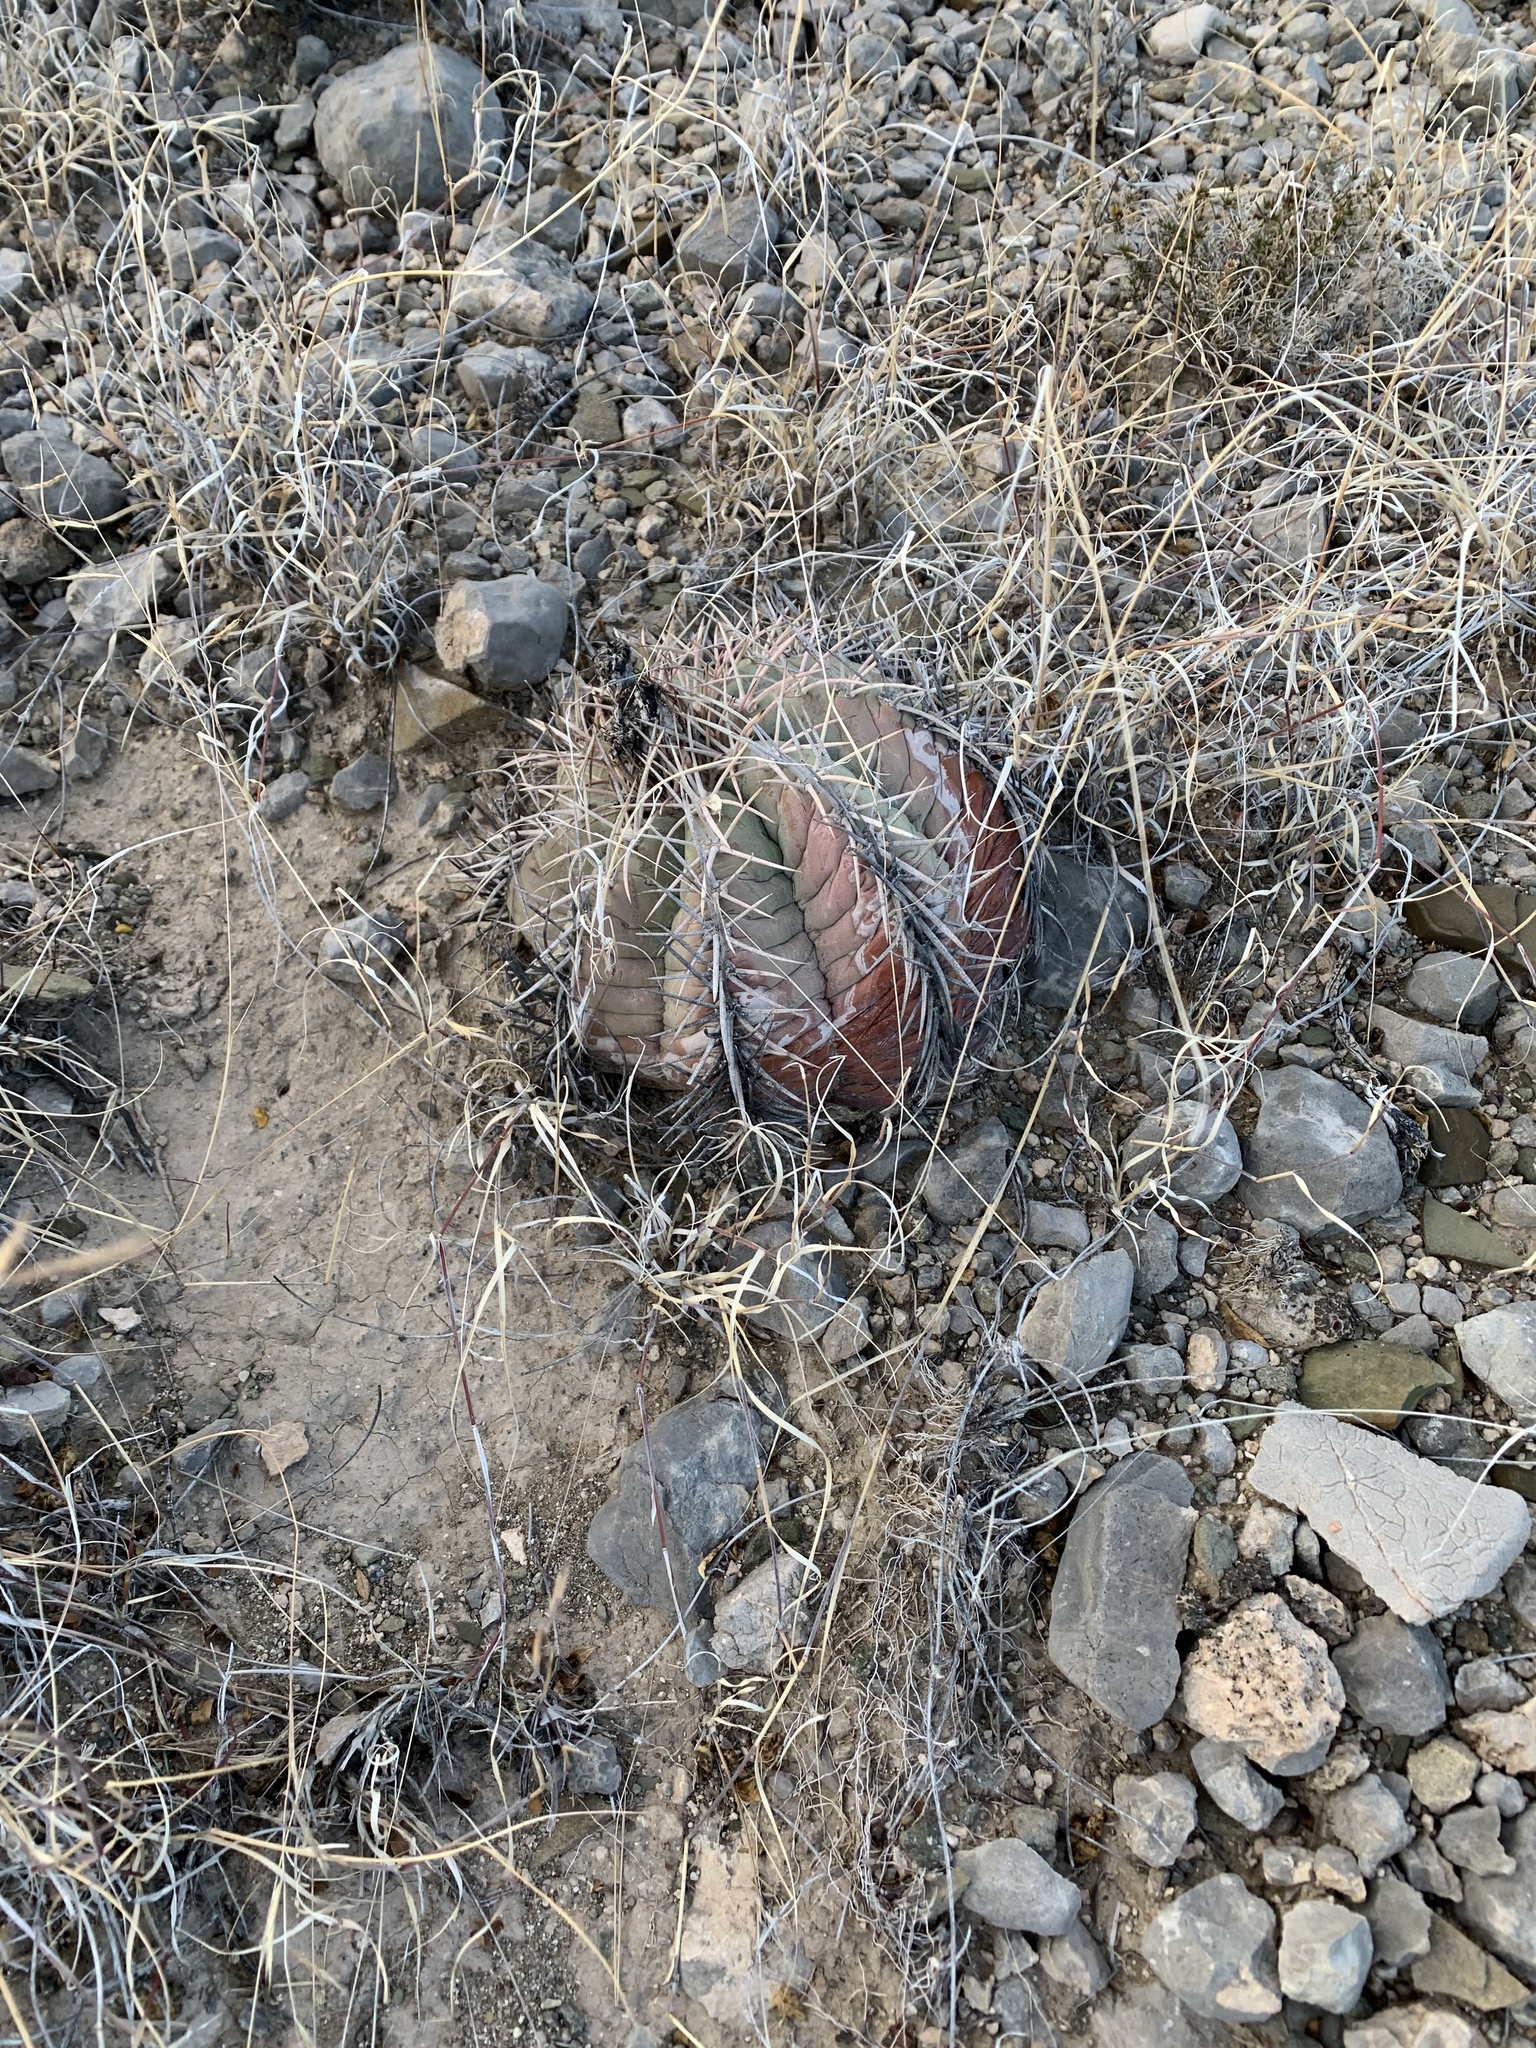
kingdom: Plantae
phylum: Tracheophyta
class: Magnoliopsida
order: Caryophyllales
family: Cactaceae
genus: Echinocactus
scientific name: Echinocactus horizonthalonius
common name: Devilshead
